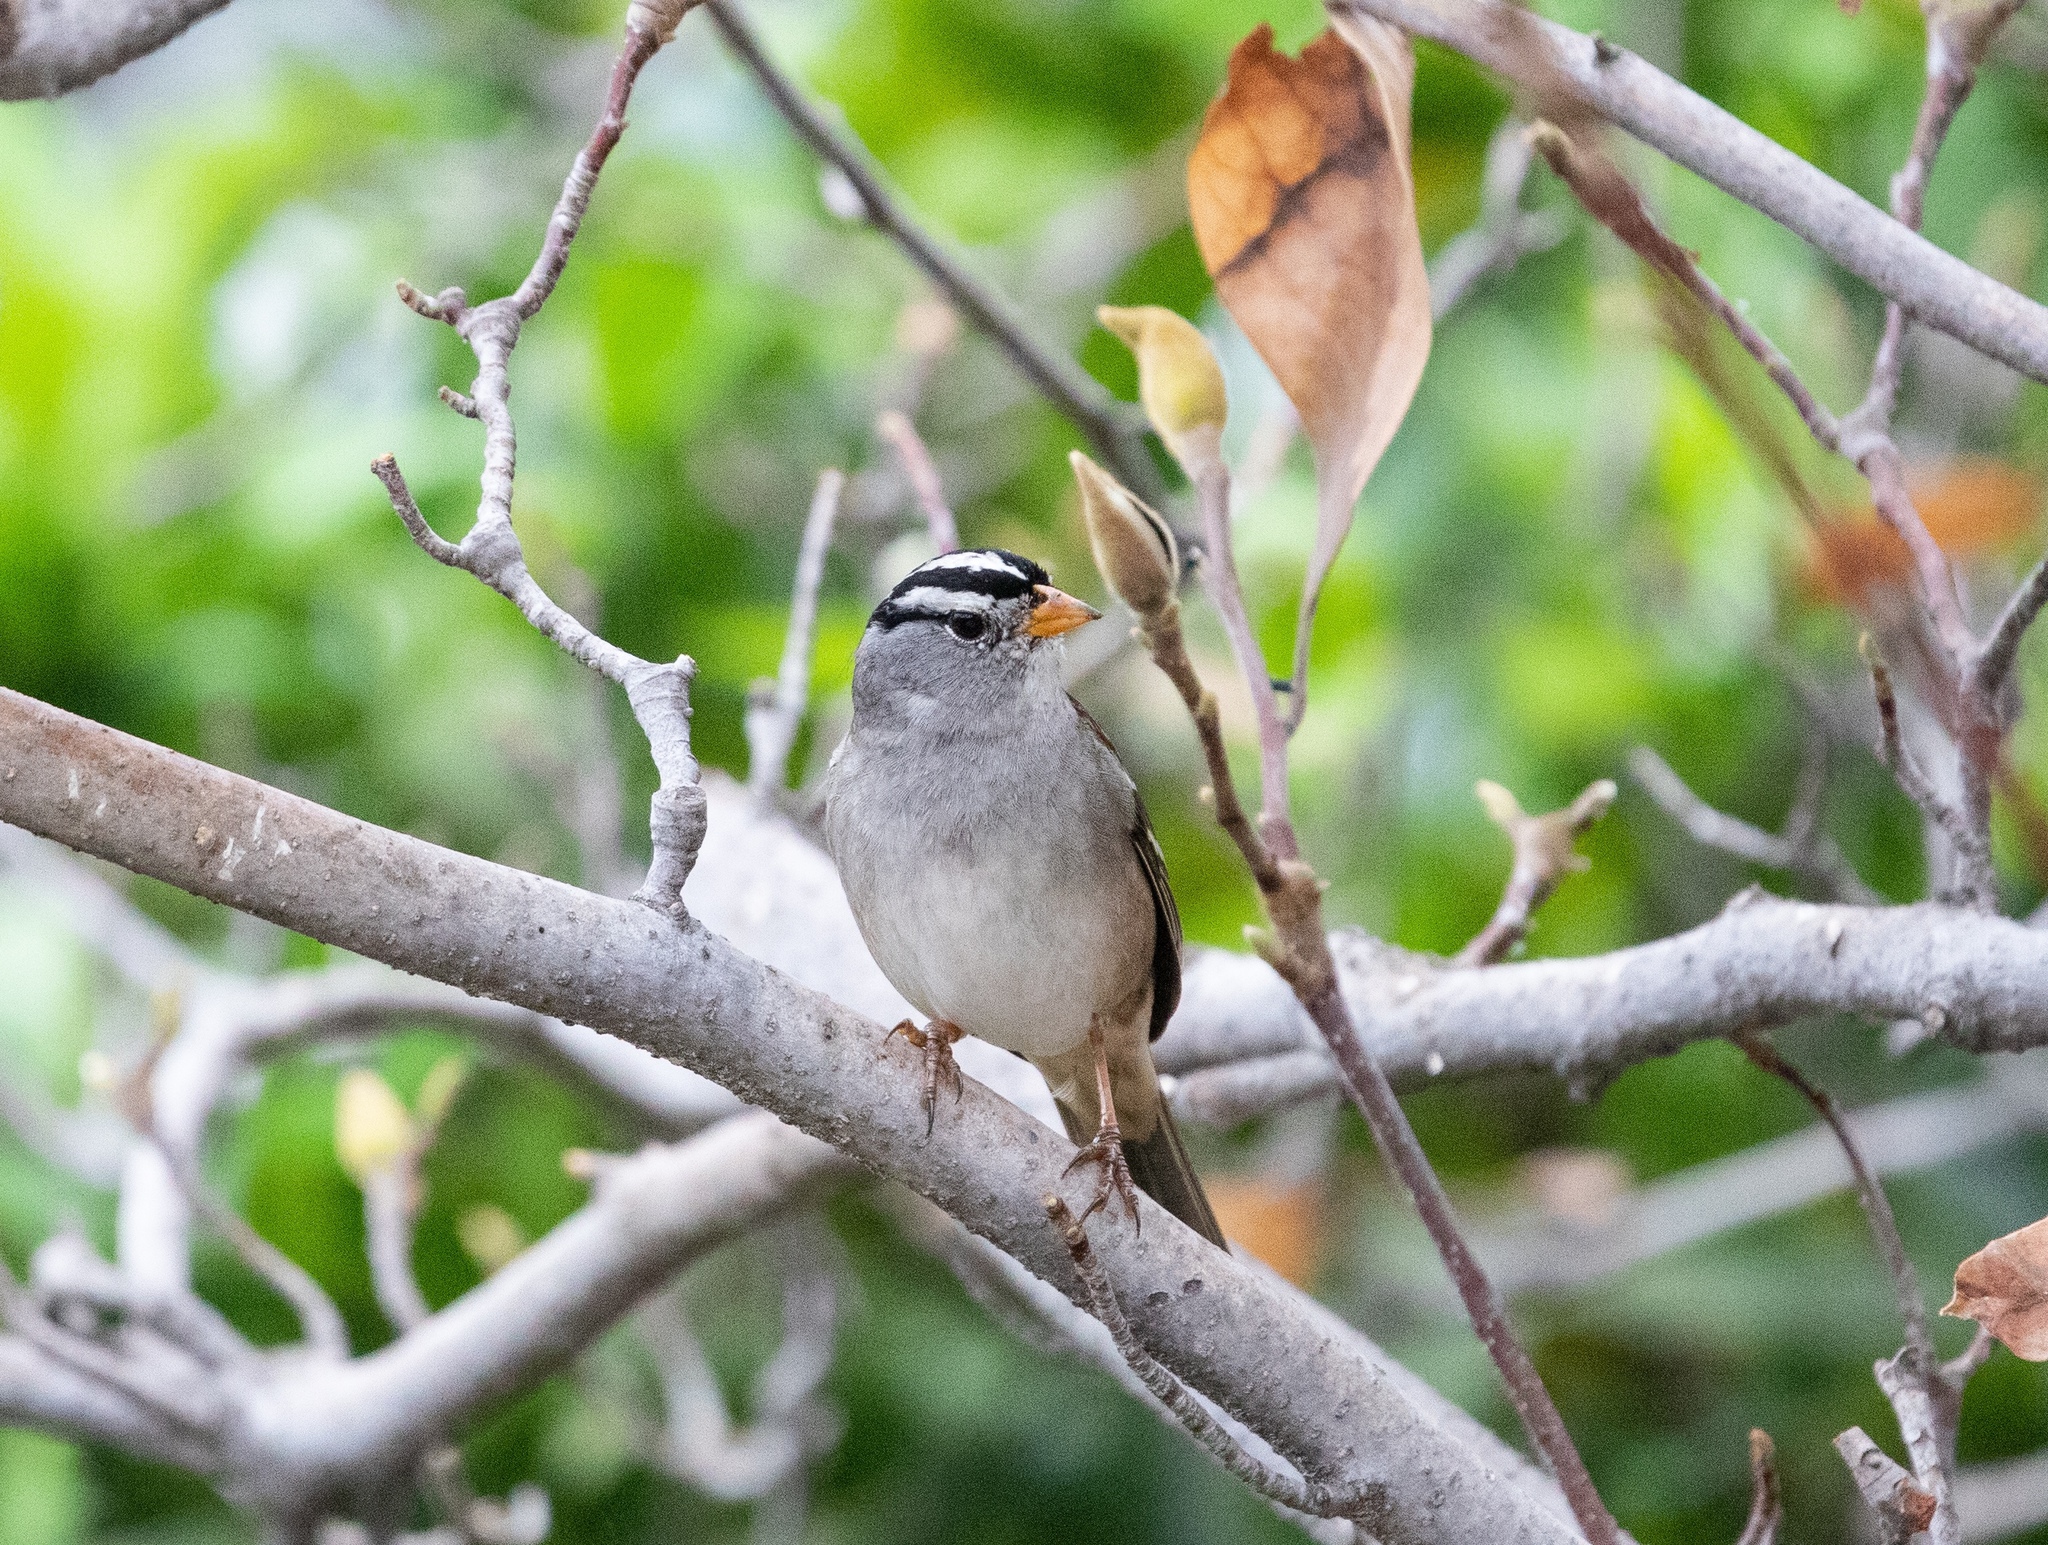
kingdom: Animalia
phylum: Chordata
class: Aves
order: Passeriformes
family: Passerellidae
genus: Zonotrichia
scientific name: Zonotrichia leucophrys
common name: White-crowned sparrow
